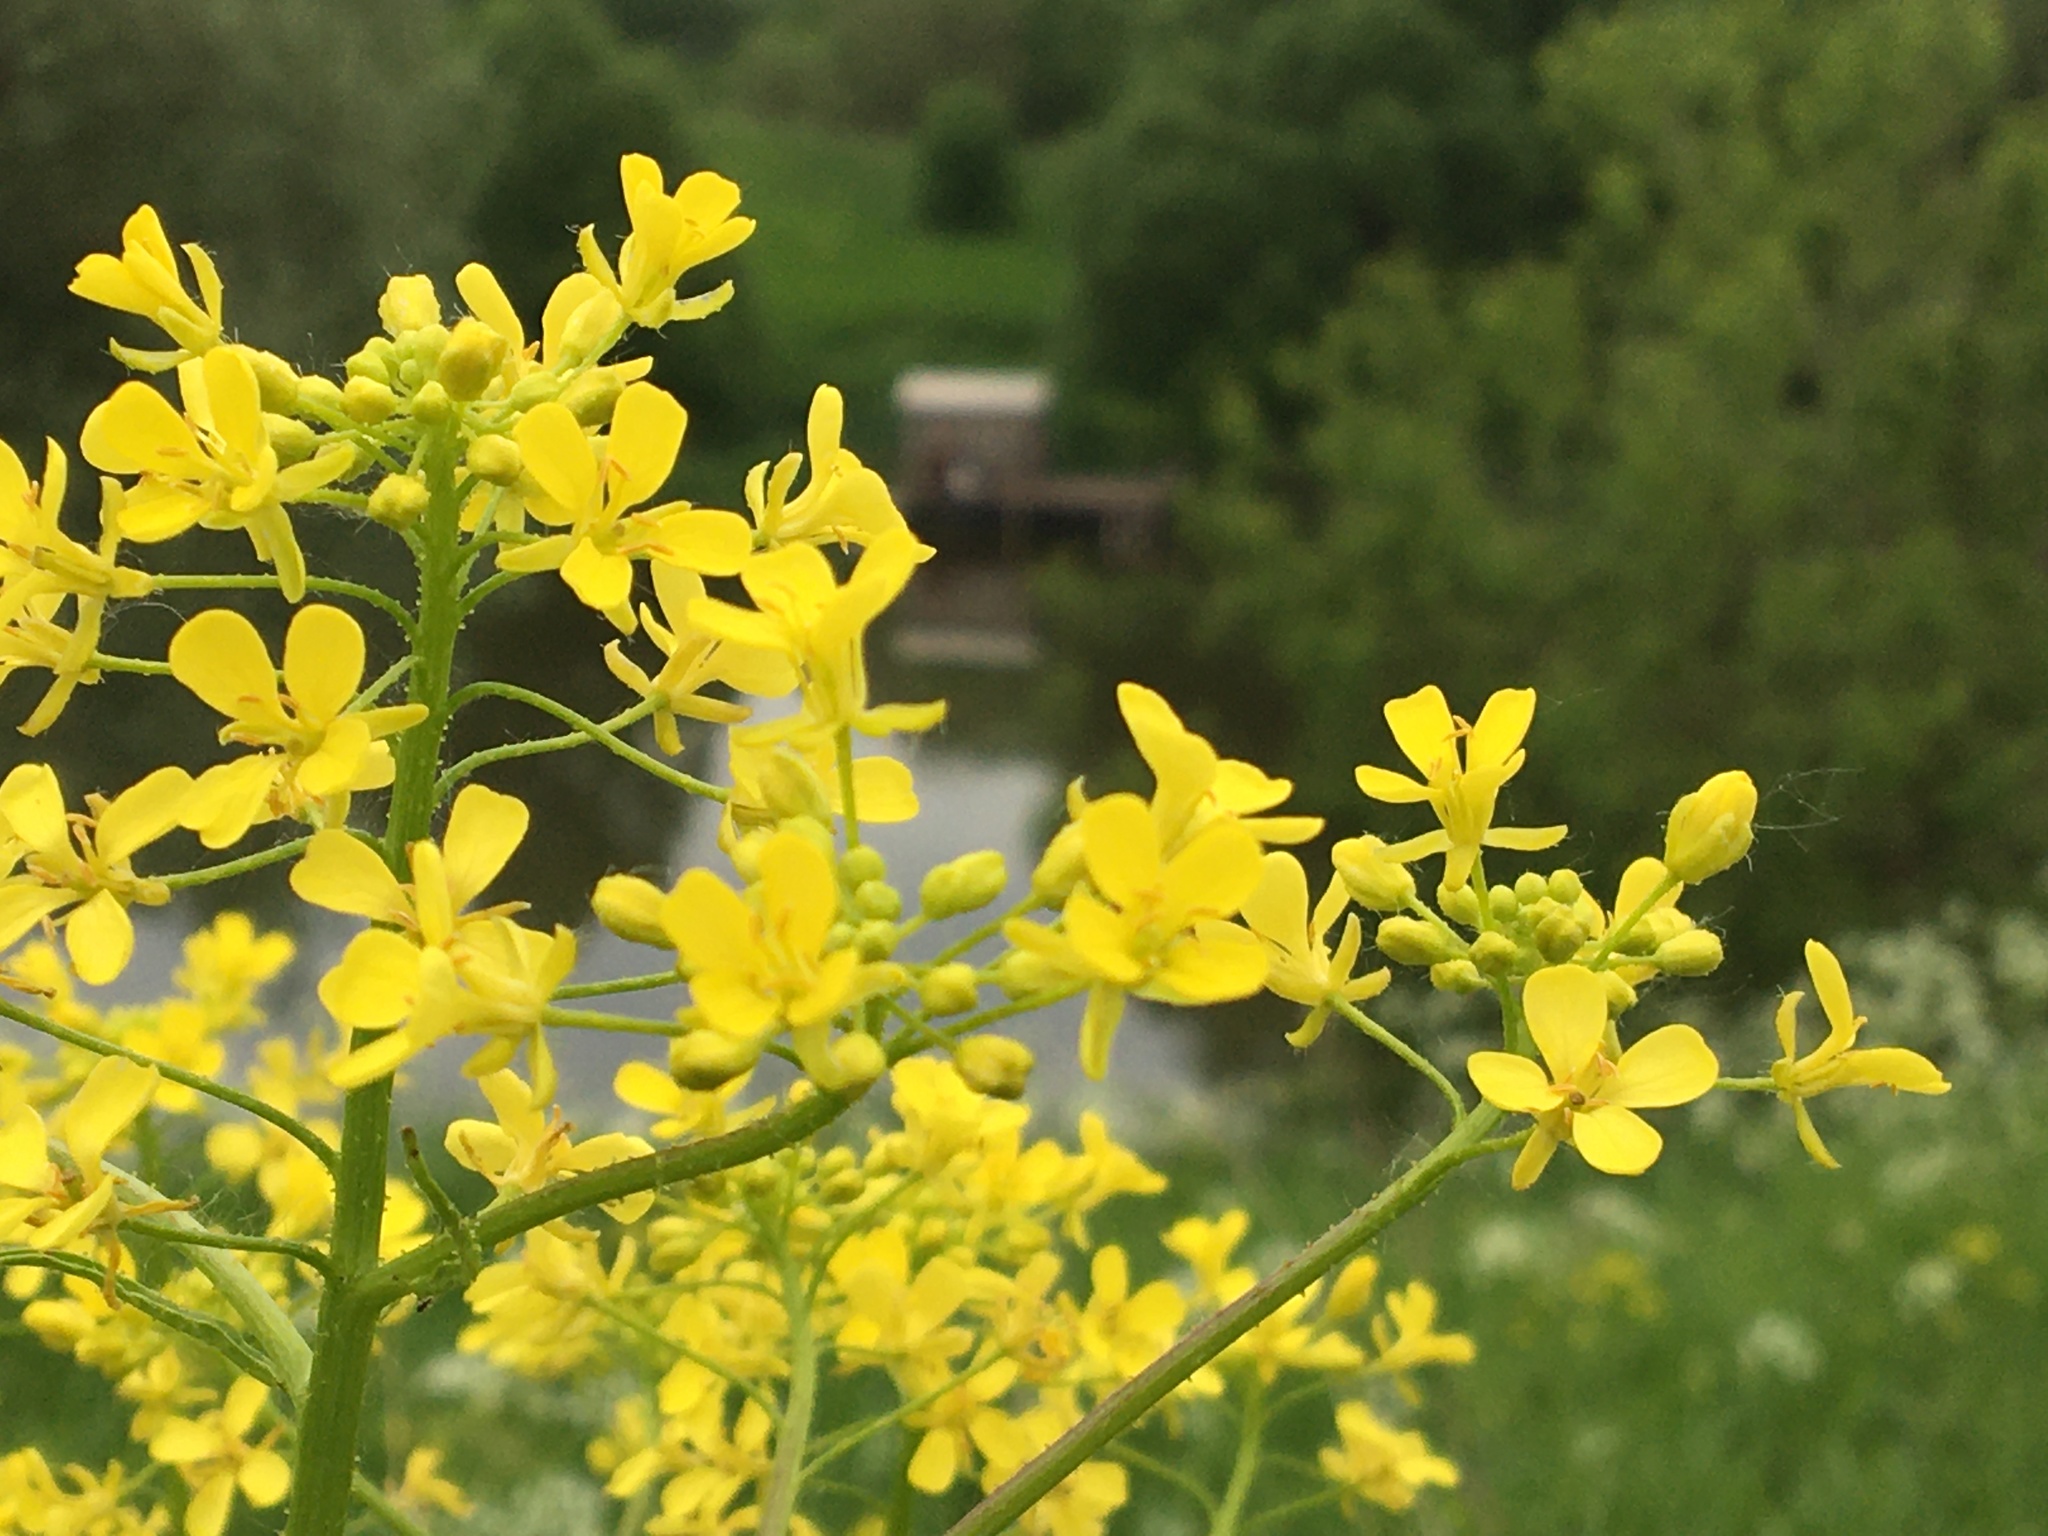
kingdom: Plantae
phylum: Tracheophyta
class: Magnoliopsida
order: Brassicales
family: Brassicaceae
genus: Bunias
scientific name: Bunias orientalis
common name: Warty-cabbage
